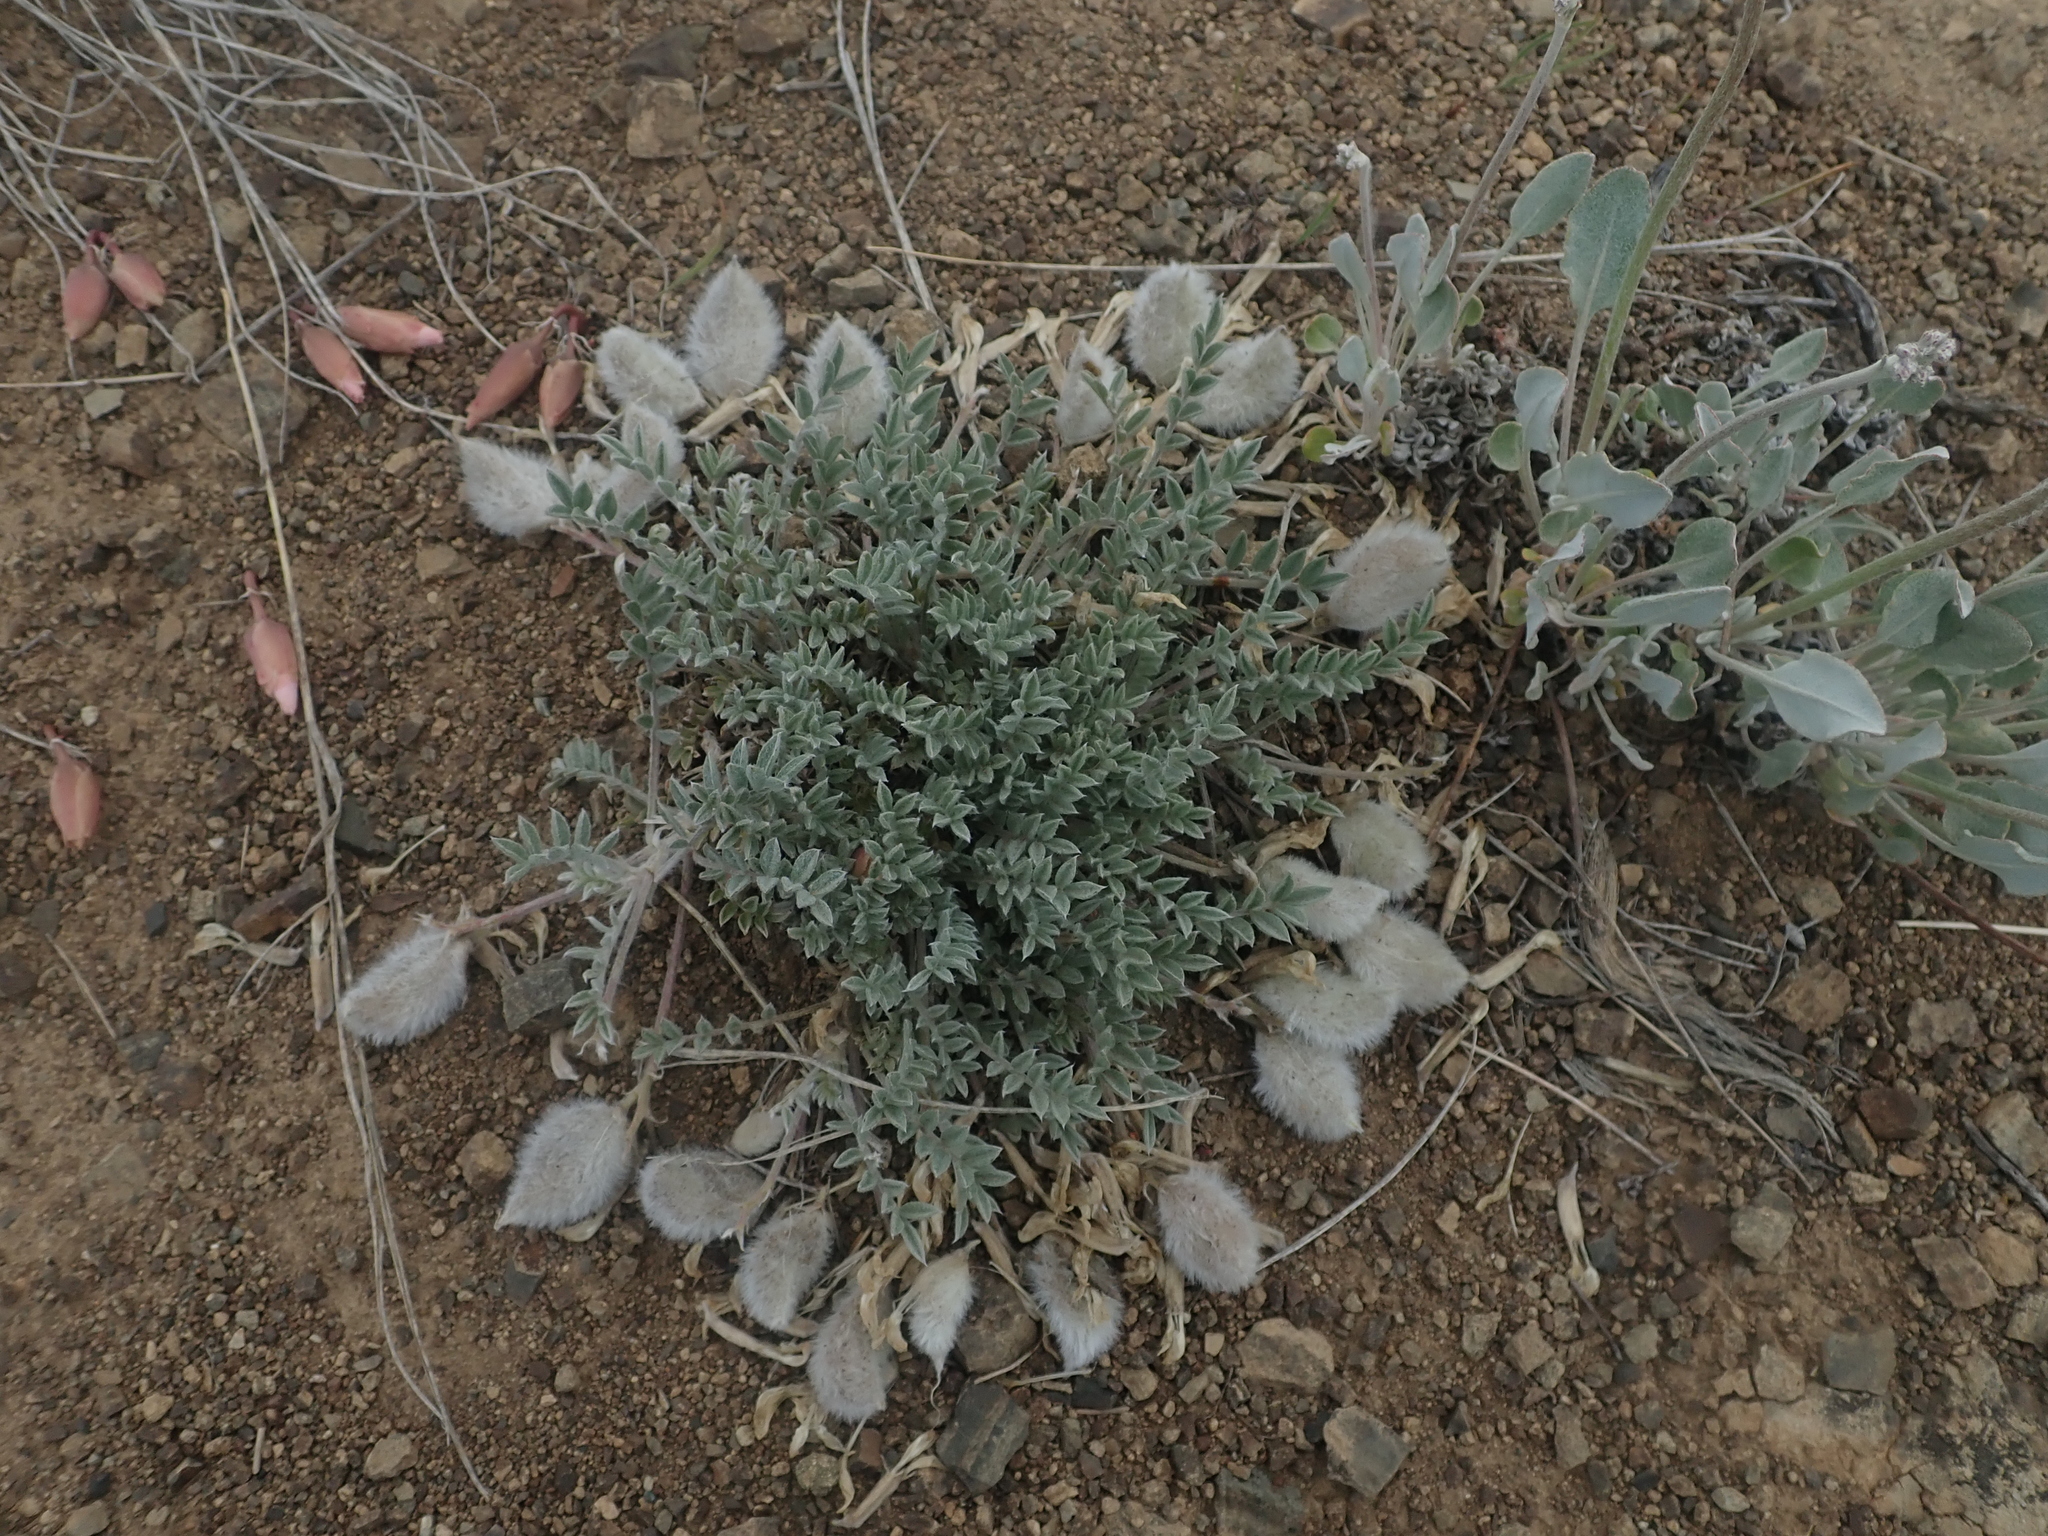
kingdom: Plantae
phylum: Tracheophyta
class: Magnoliopsida
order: Fabales
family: Fabaceae
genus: Astragalus
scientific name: Astragalus purshii
